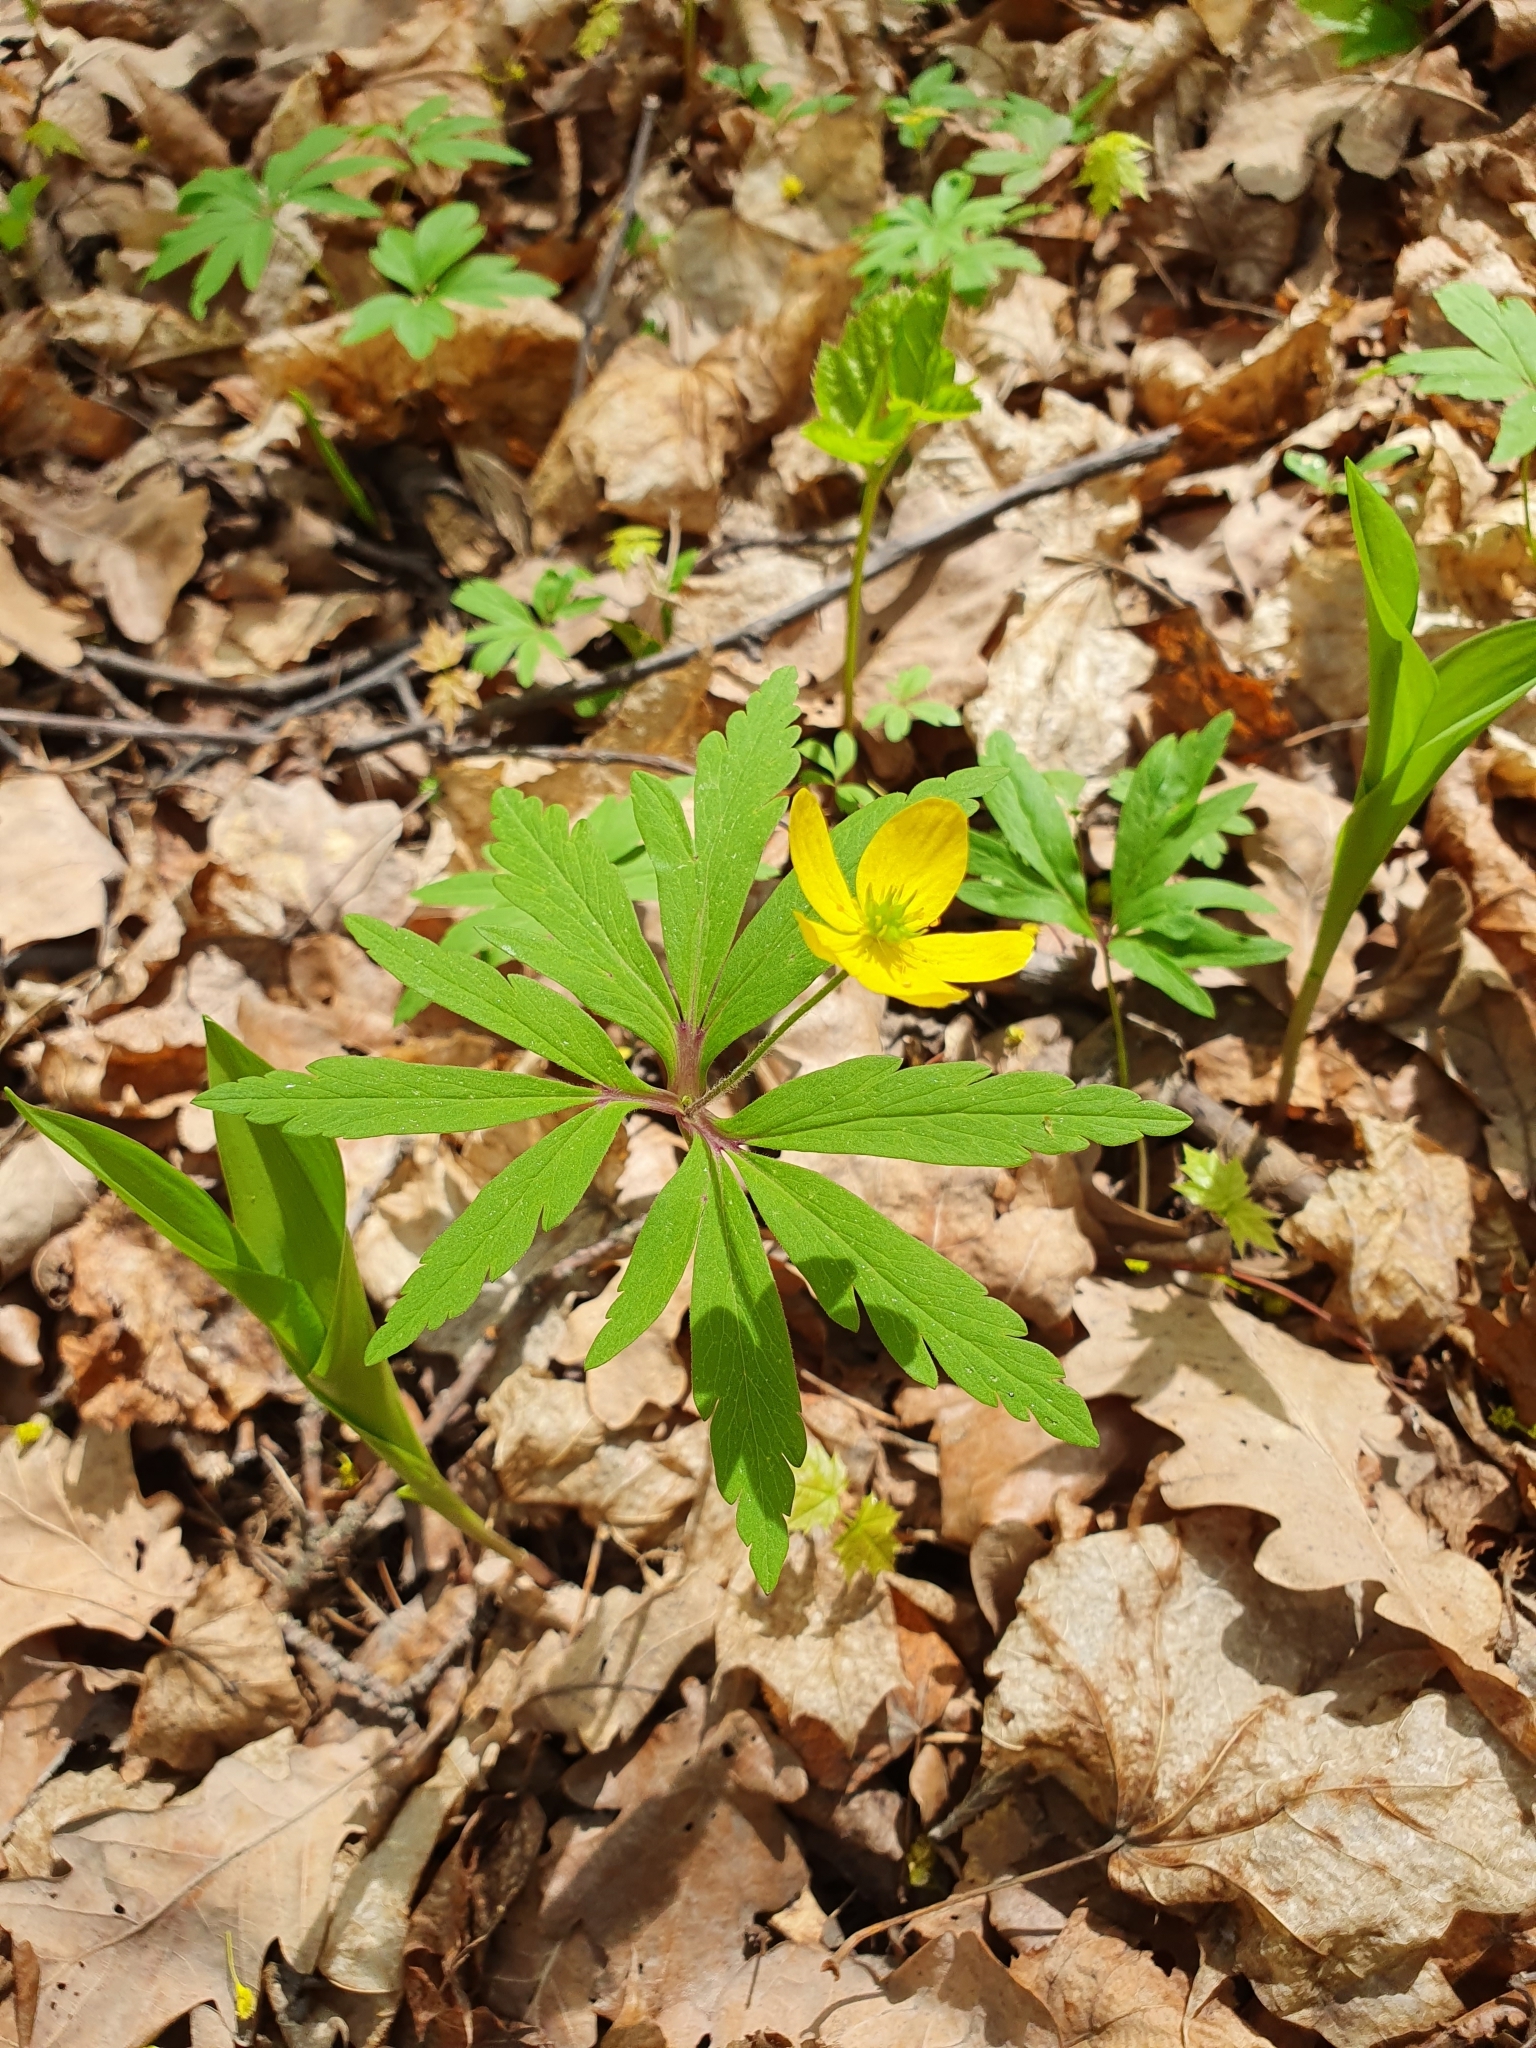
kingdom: Plantae
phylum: Tracheophyta
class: Magnoliopsida
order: Ranunculales
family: Ranunculaceae
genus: Anemone
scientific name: Anemone ranunculoides
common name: Yellow anemone
